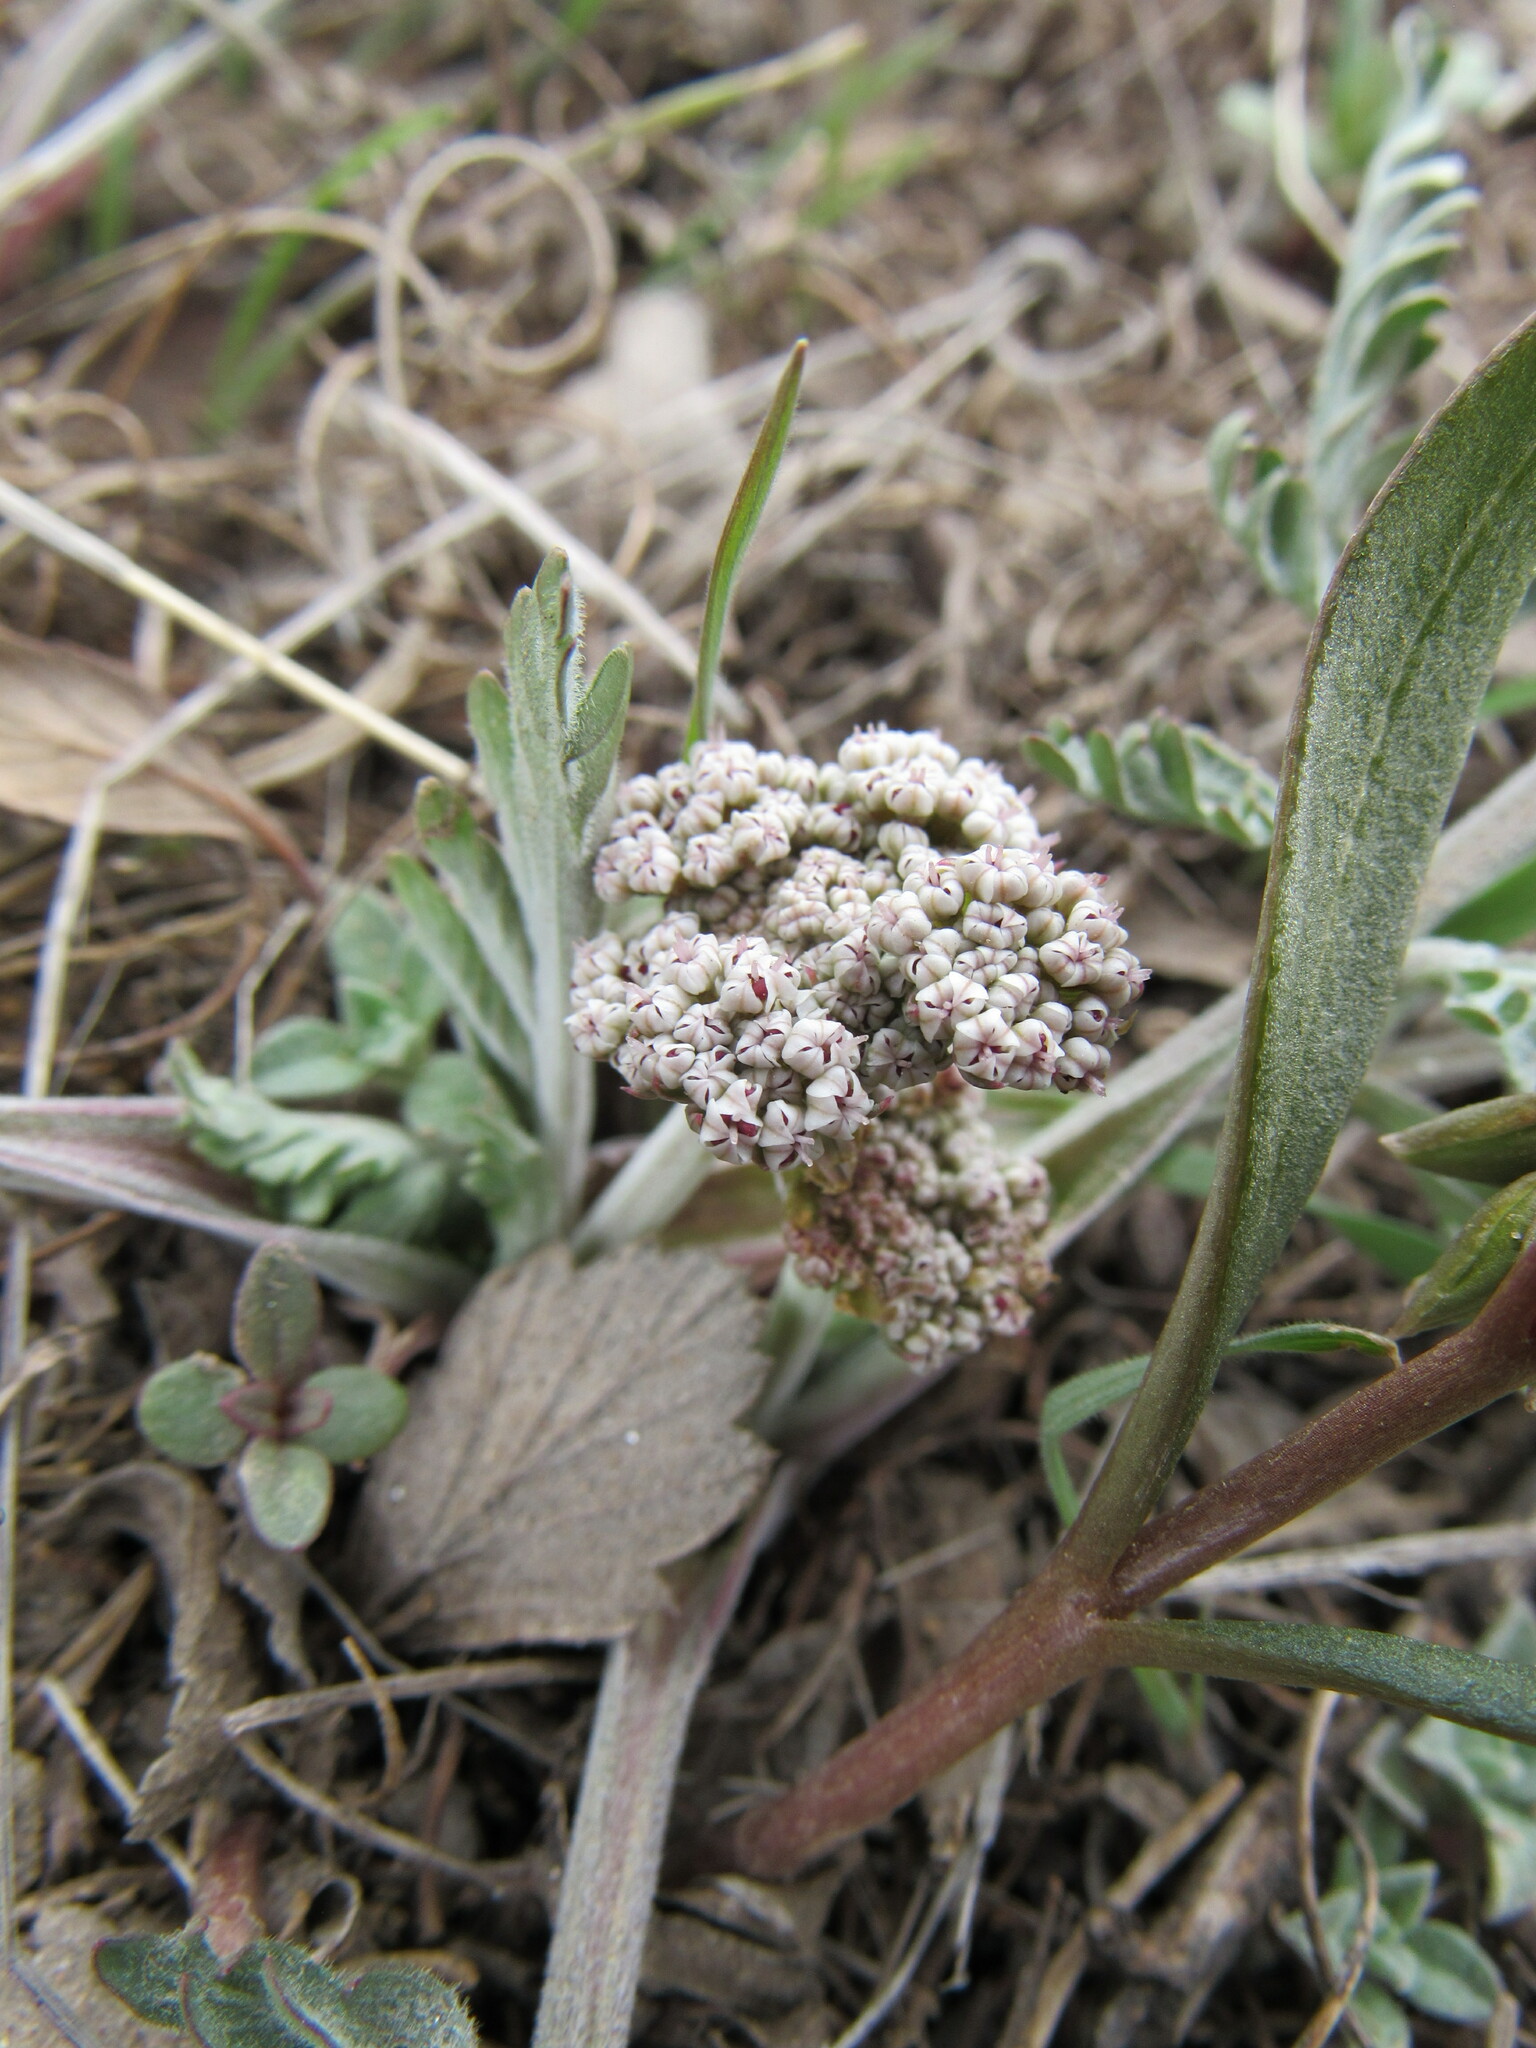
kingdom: Plantae
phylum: Tracheophyta
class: Magnoliopsida
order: Apiales
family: Apiaceae
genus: Lomatium
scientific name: Lomatium orientale
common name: Eastern cous
